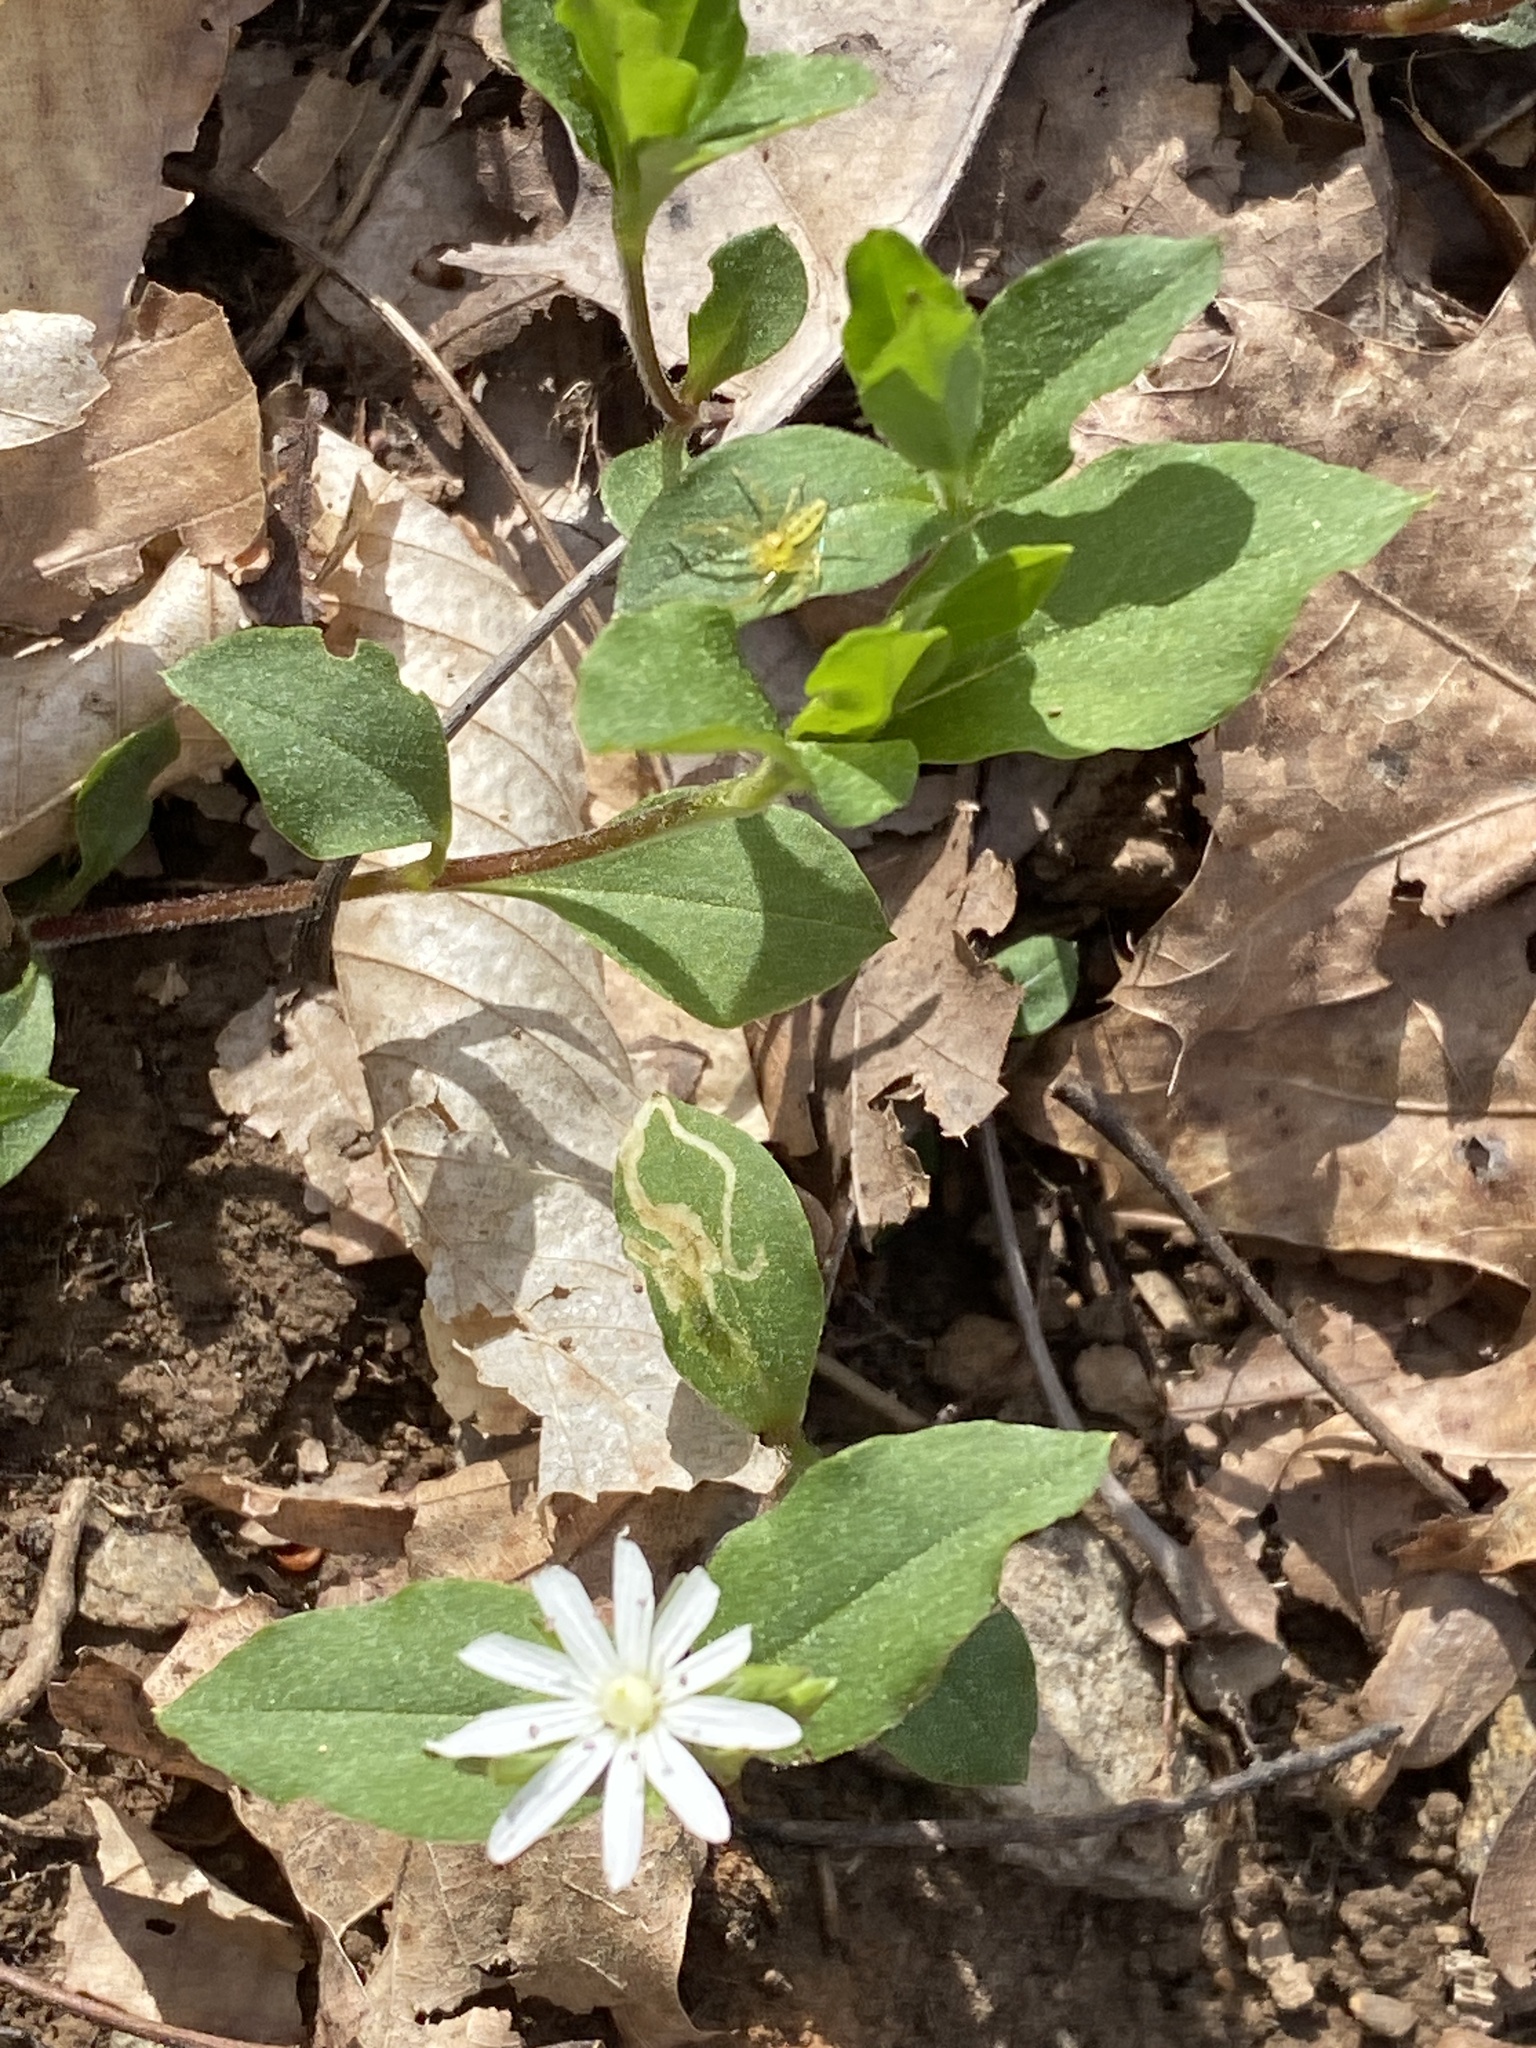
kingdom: Plantae
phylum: Tracheophyta
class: Magnoliopsida
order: Caryophyllales
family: Caryophyllaceae
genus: Stellaria
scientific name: Stellaria pubera
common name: Star chickweed
